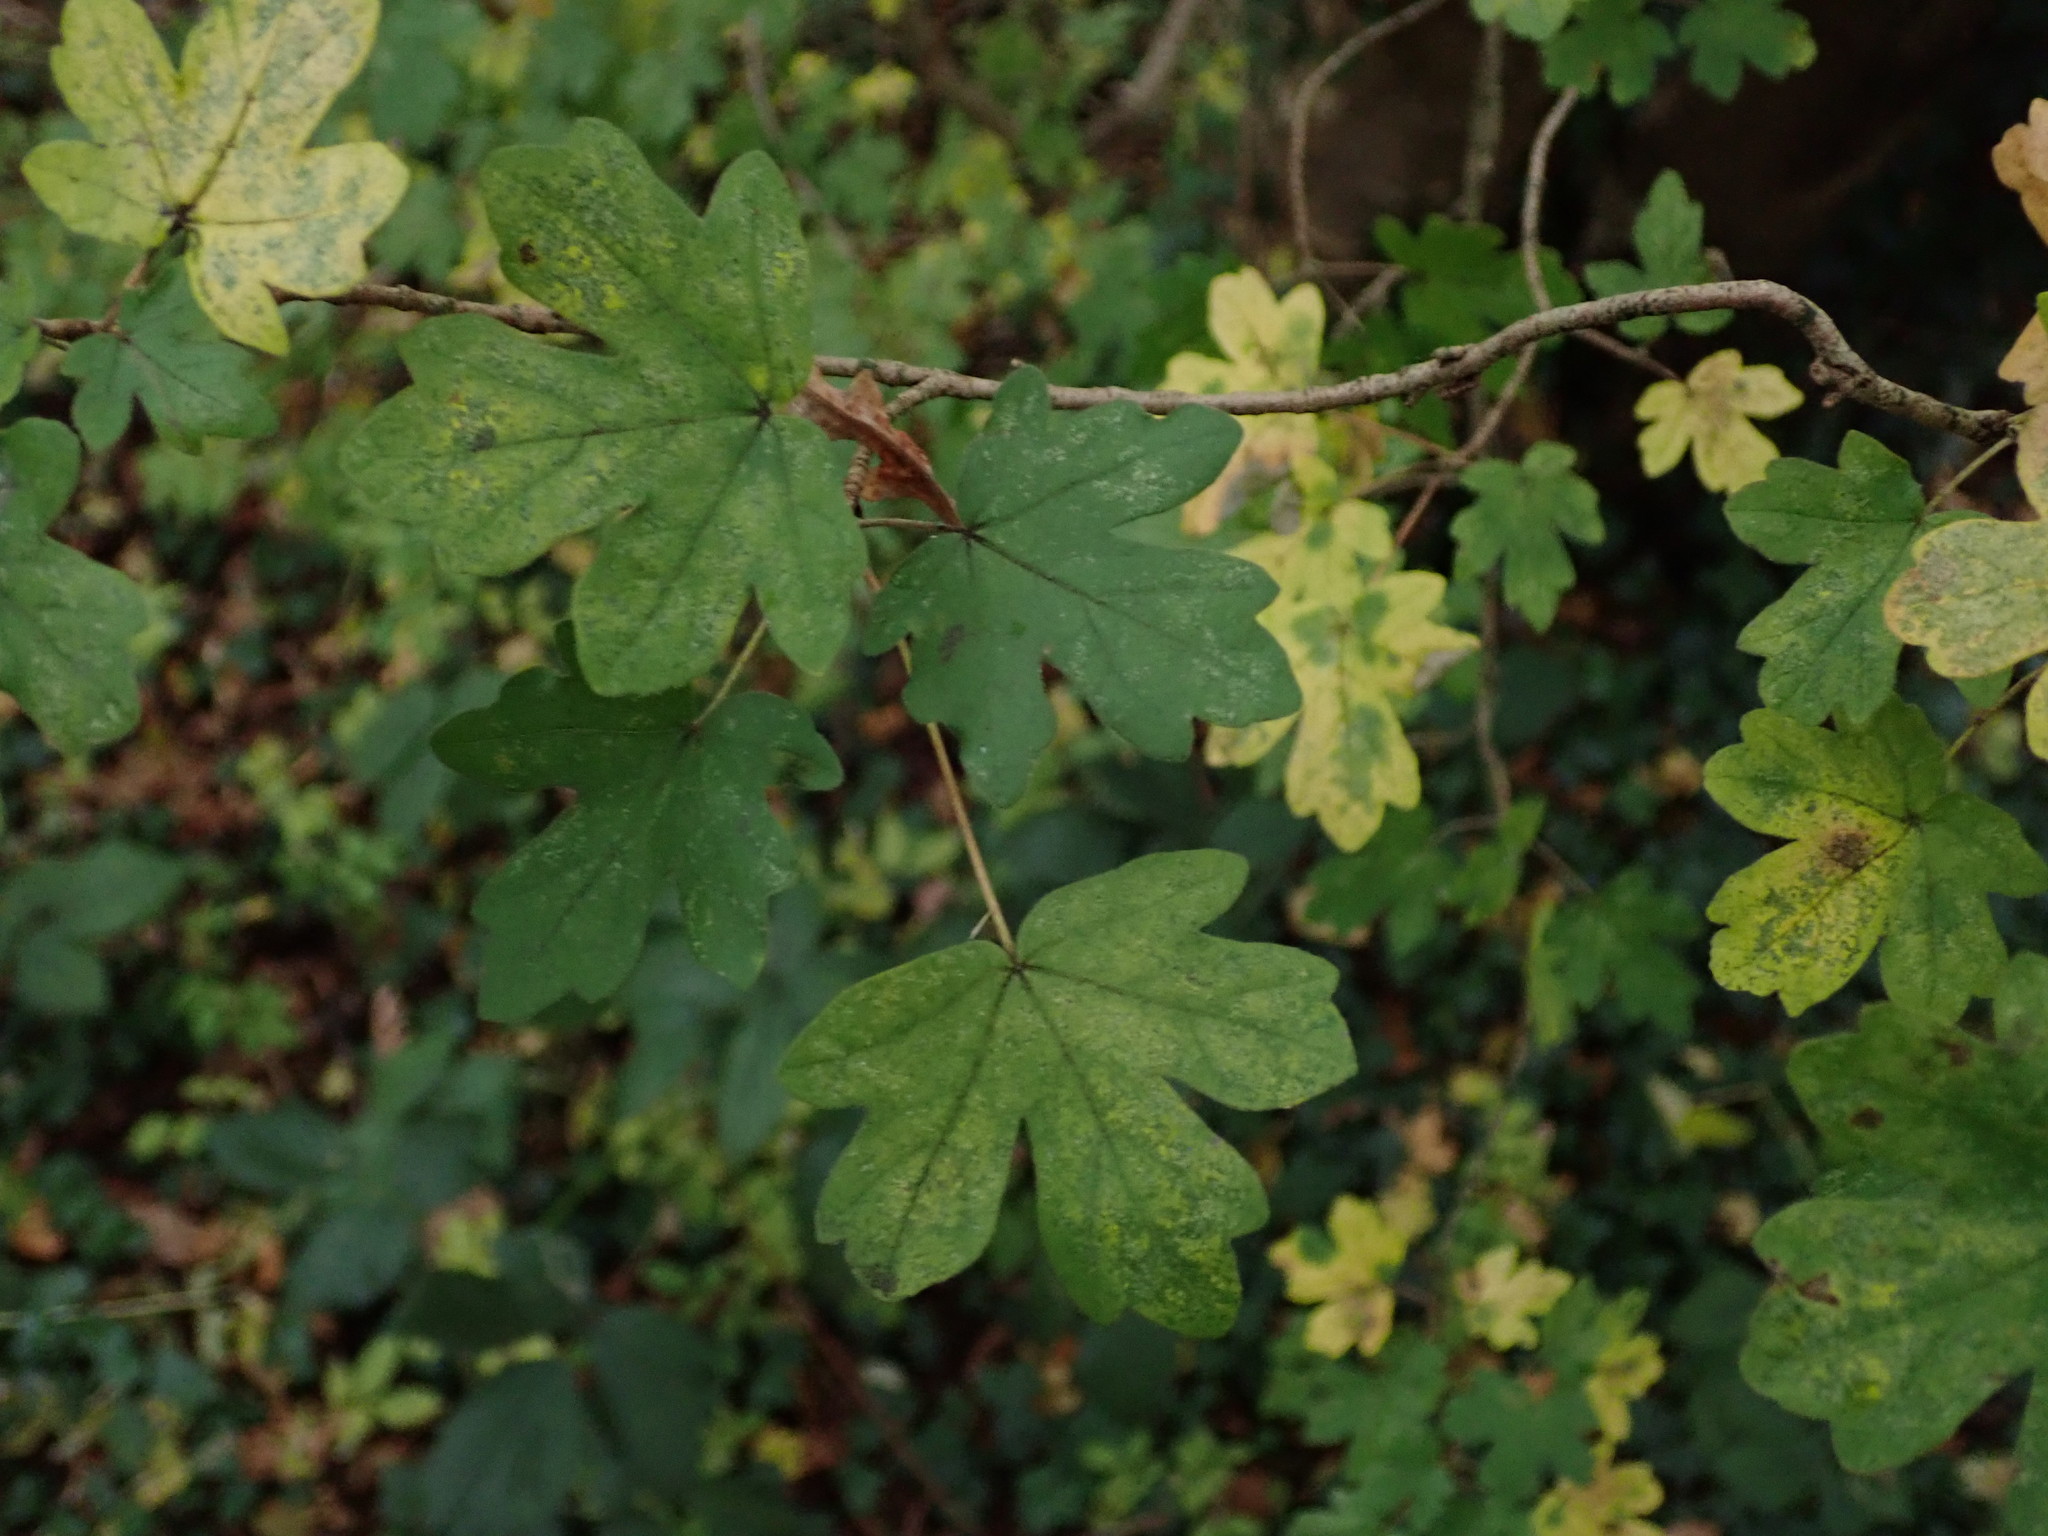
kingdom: Plantae
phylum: Tracheophyta
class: Magnoliopsida
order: Sapindales
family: Sapindaceae
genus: Acer
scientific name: Acer campestre
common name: Field maple
